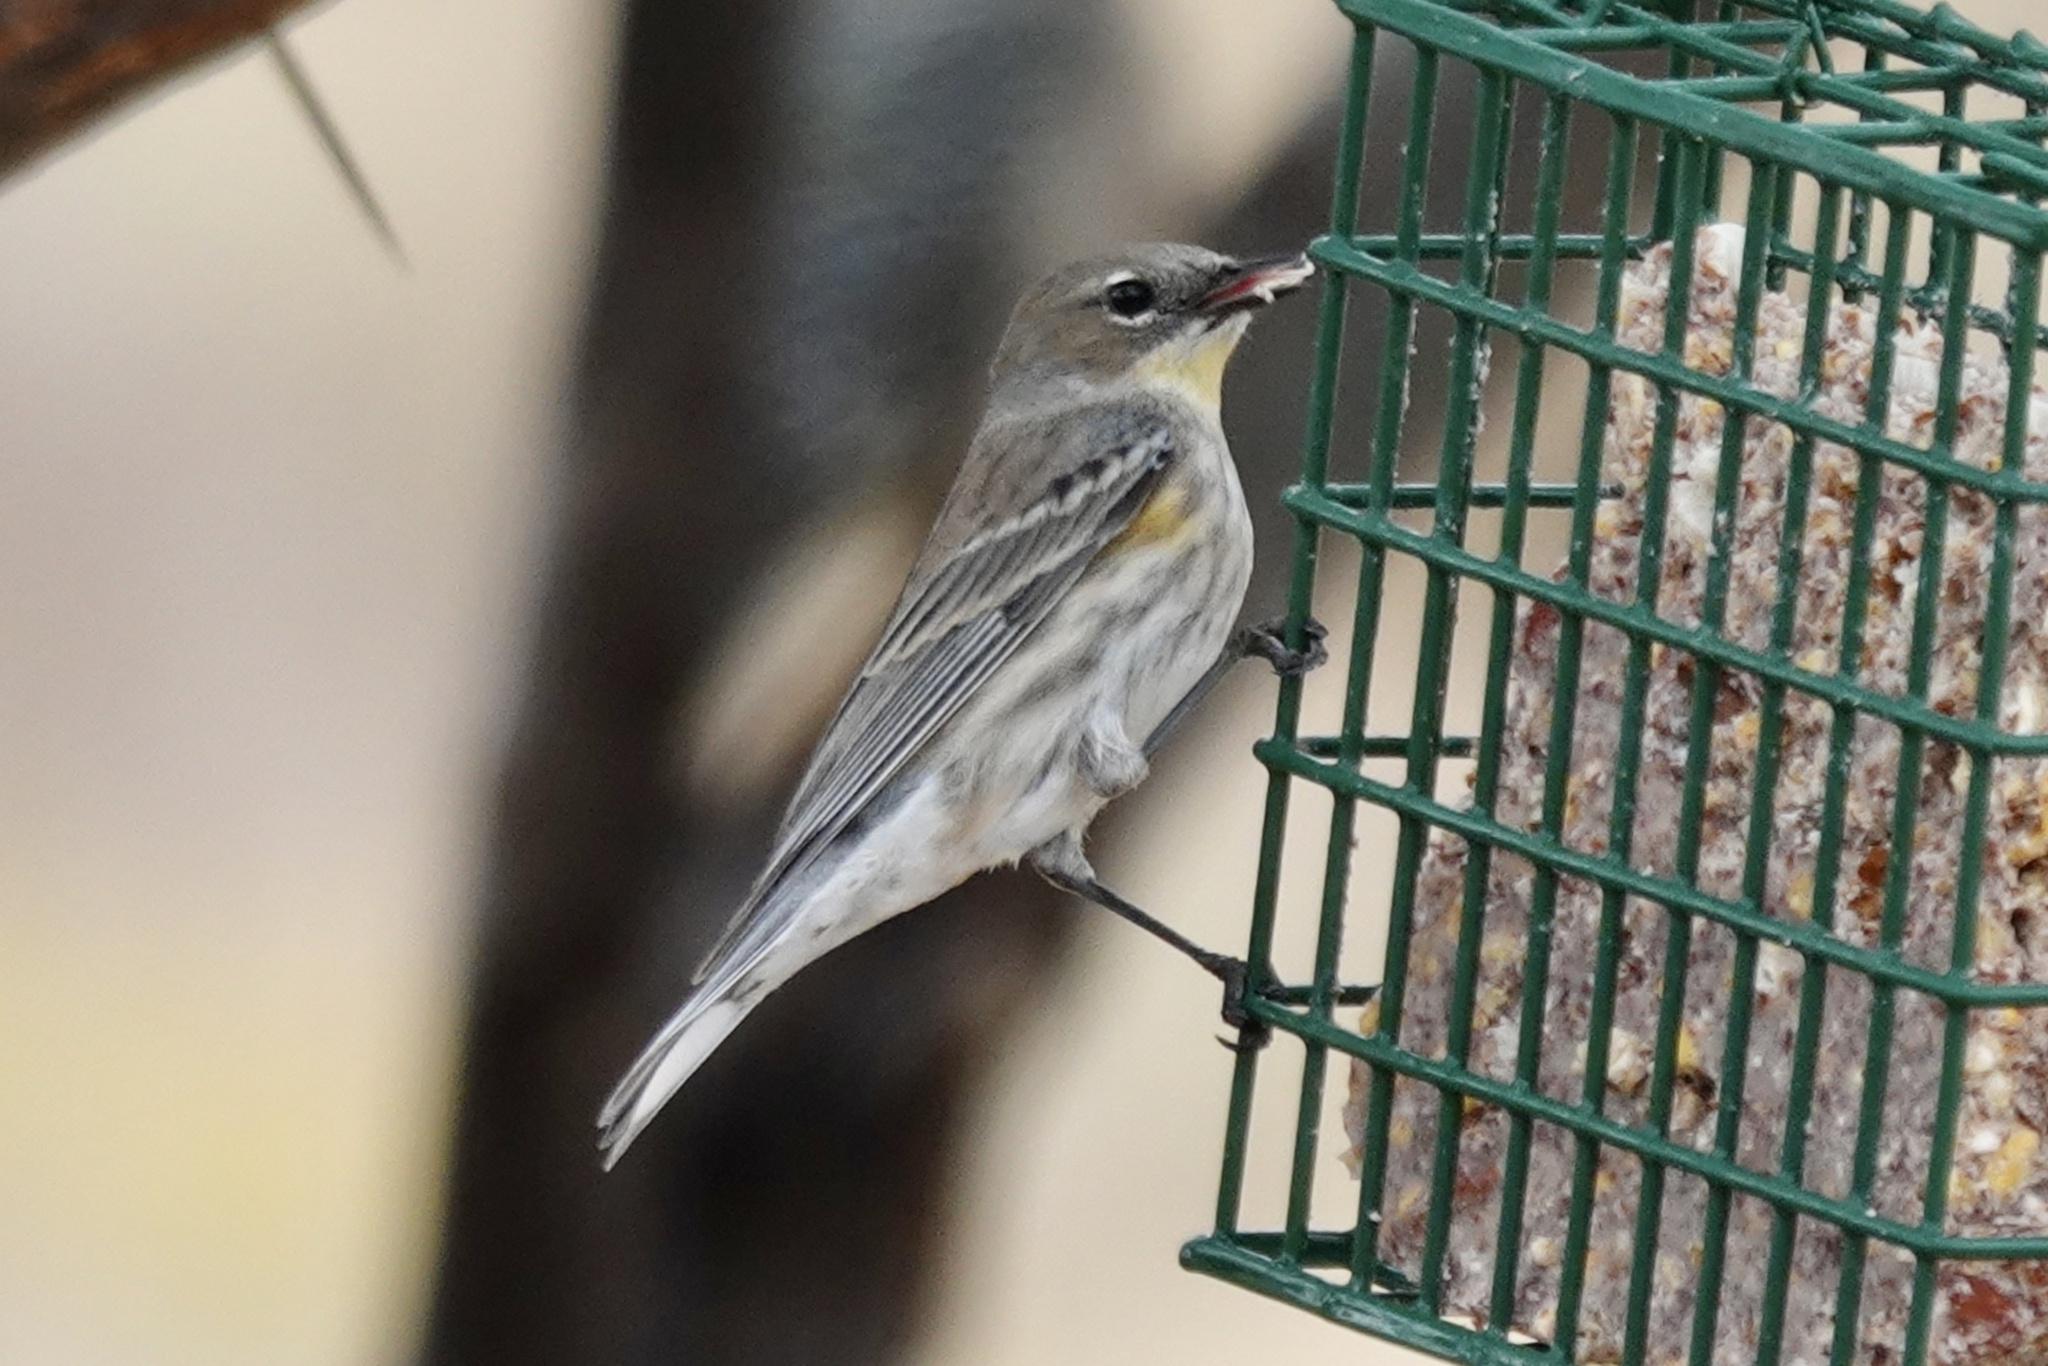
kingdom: Animalia
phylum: Chordata
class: Aves
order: Passeriformes
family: Parulidae
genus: Setophaga
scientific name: Setophaga coronata
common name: Myrtle warbler
